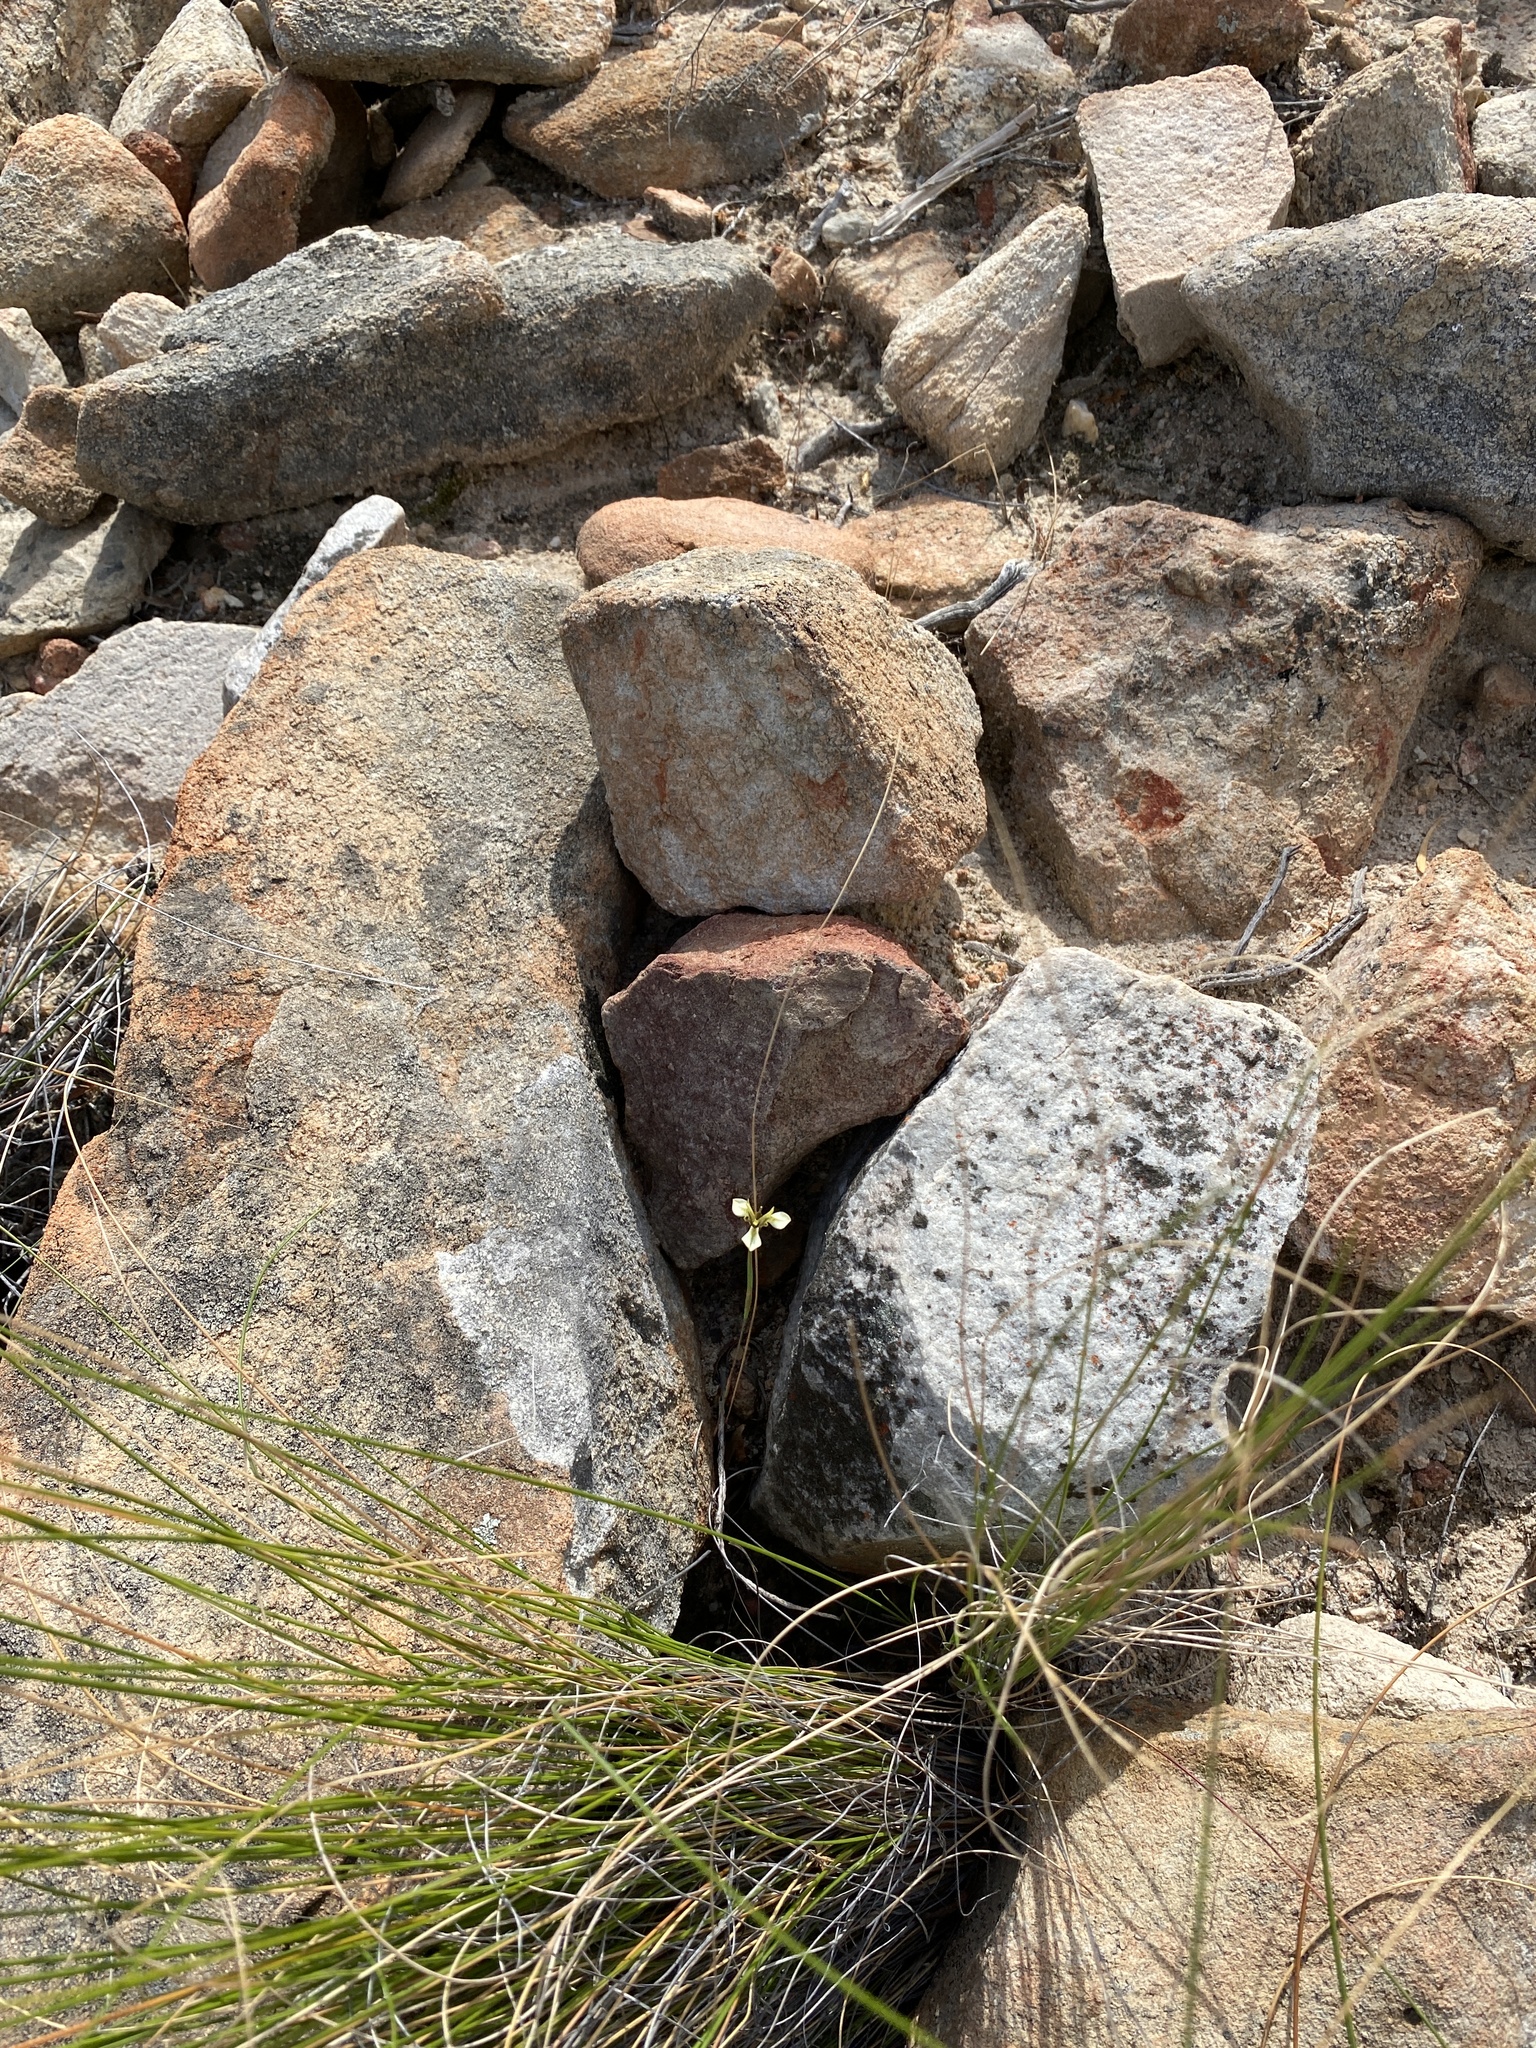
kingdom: Plantae
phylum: Tracheophyta
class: Liliopsida
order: Asparagales
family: Iridaceae
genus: Moraea
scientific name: Moraea inconspicua
